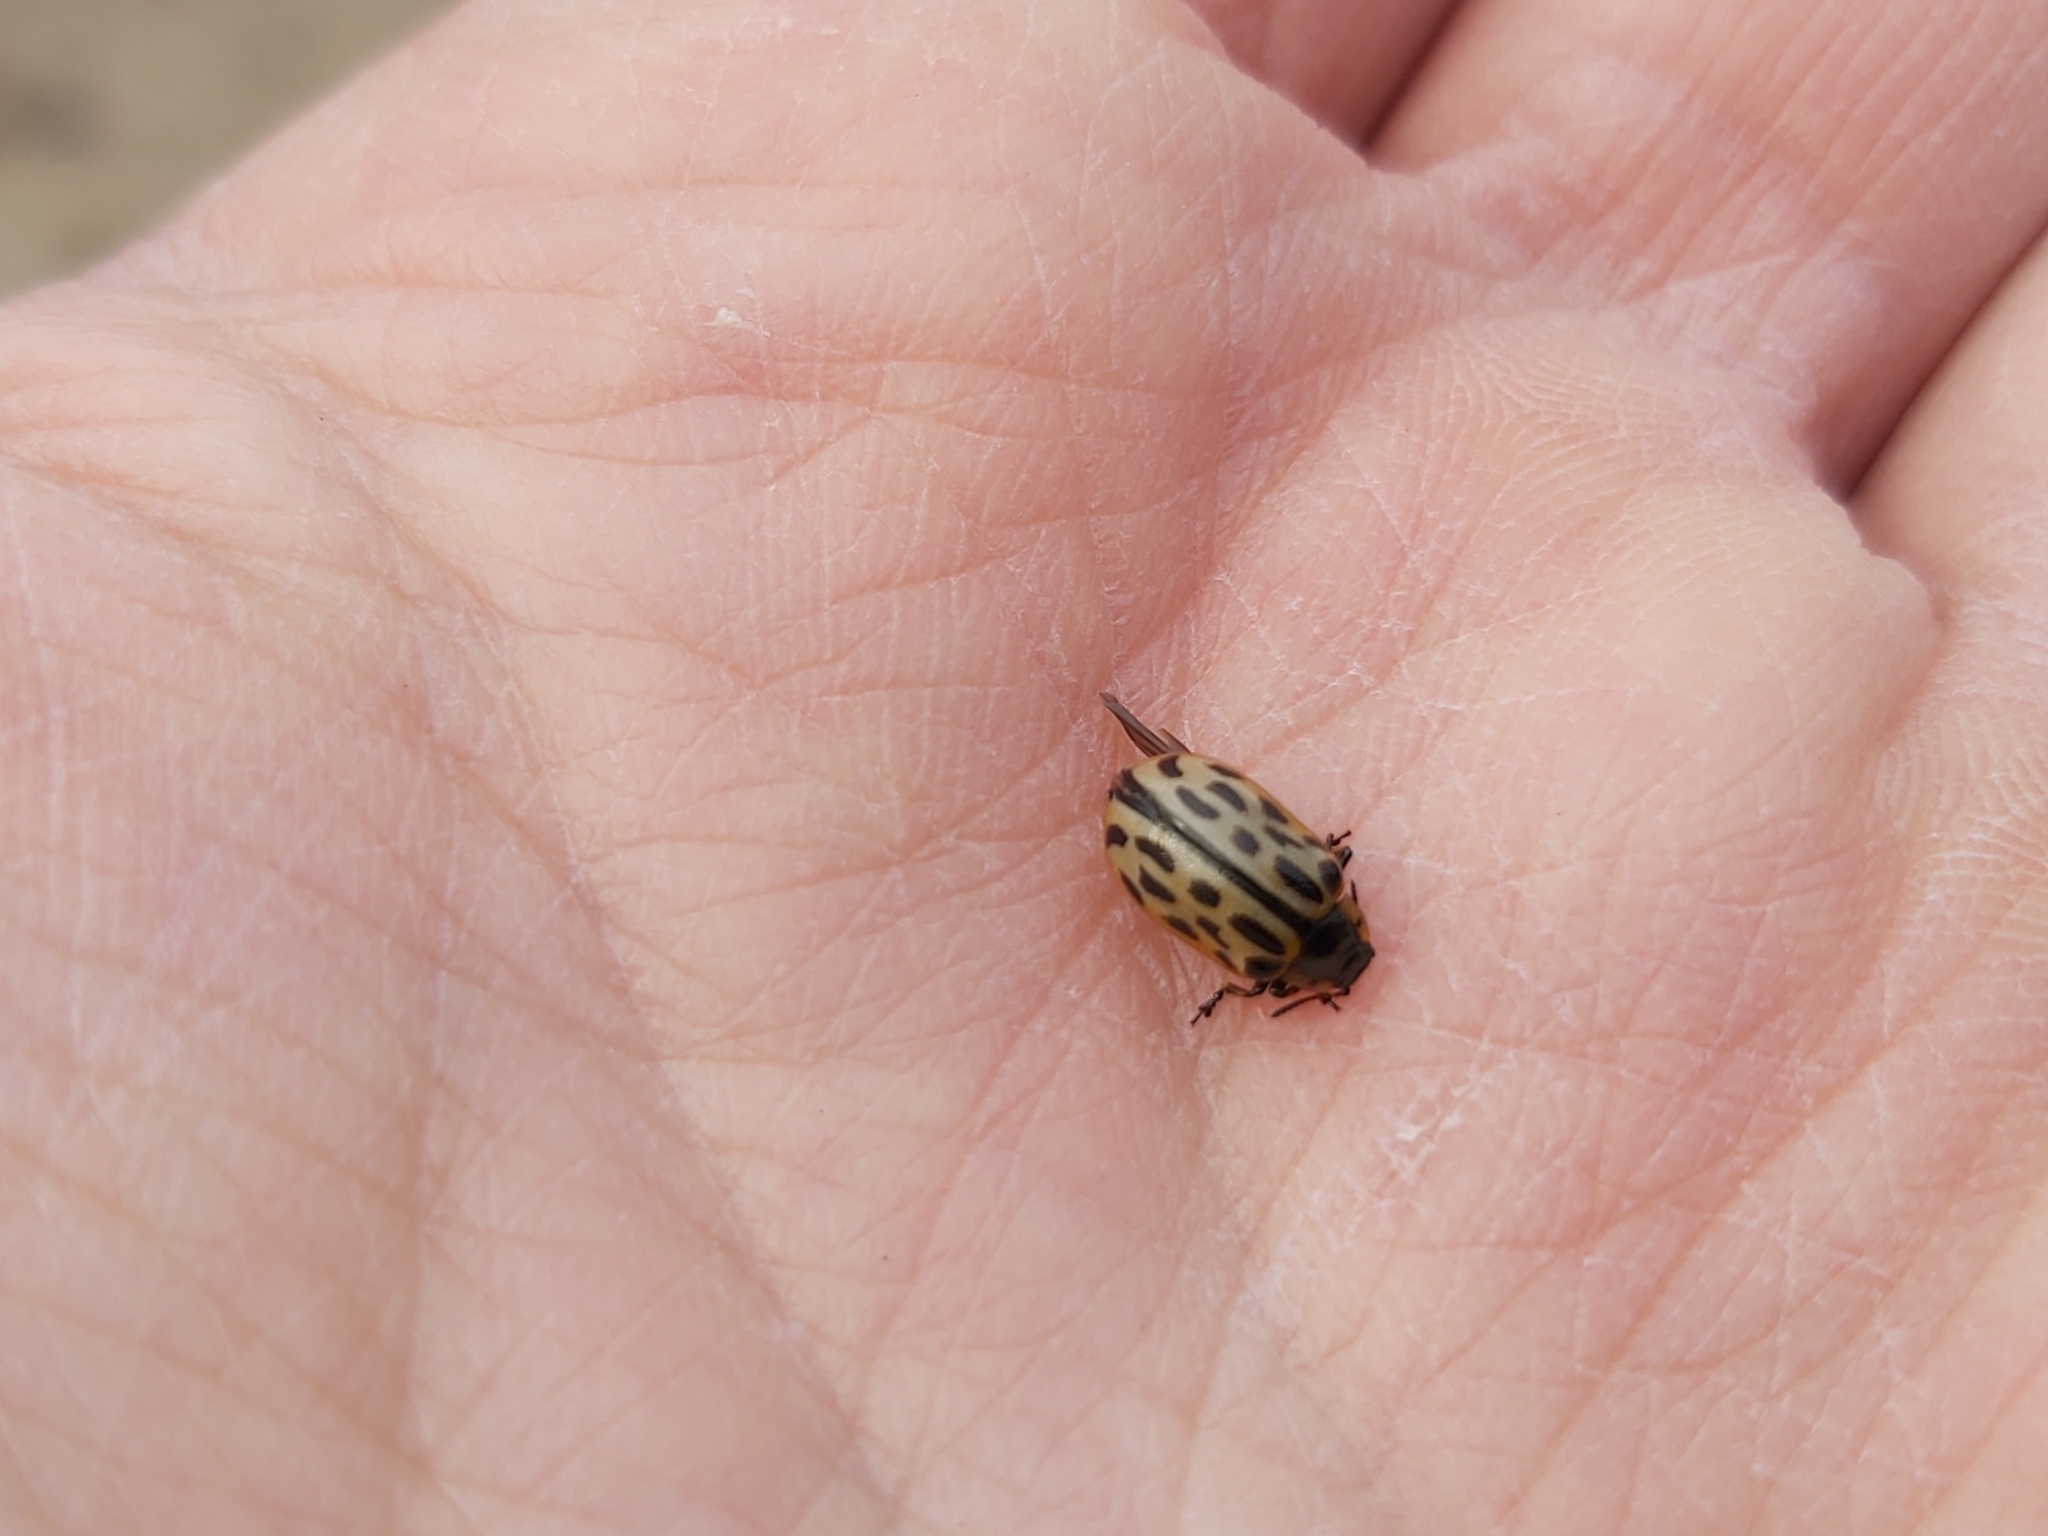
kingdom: Animalia
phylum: Arthropoda
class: Insecta
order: Coleoptera
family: Chrysomelidae
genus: Chrysomela
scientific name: Chrysomela vigintipunctata
